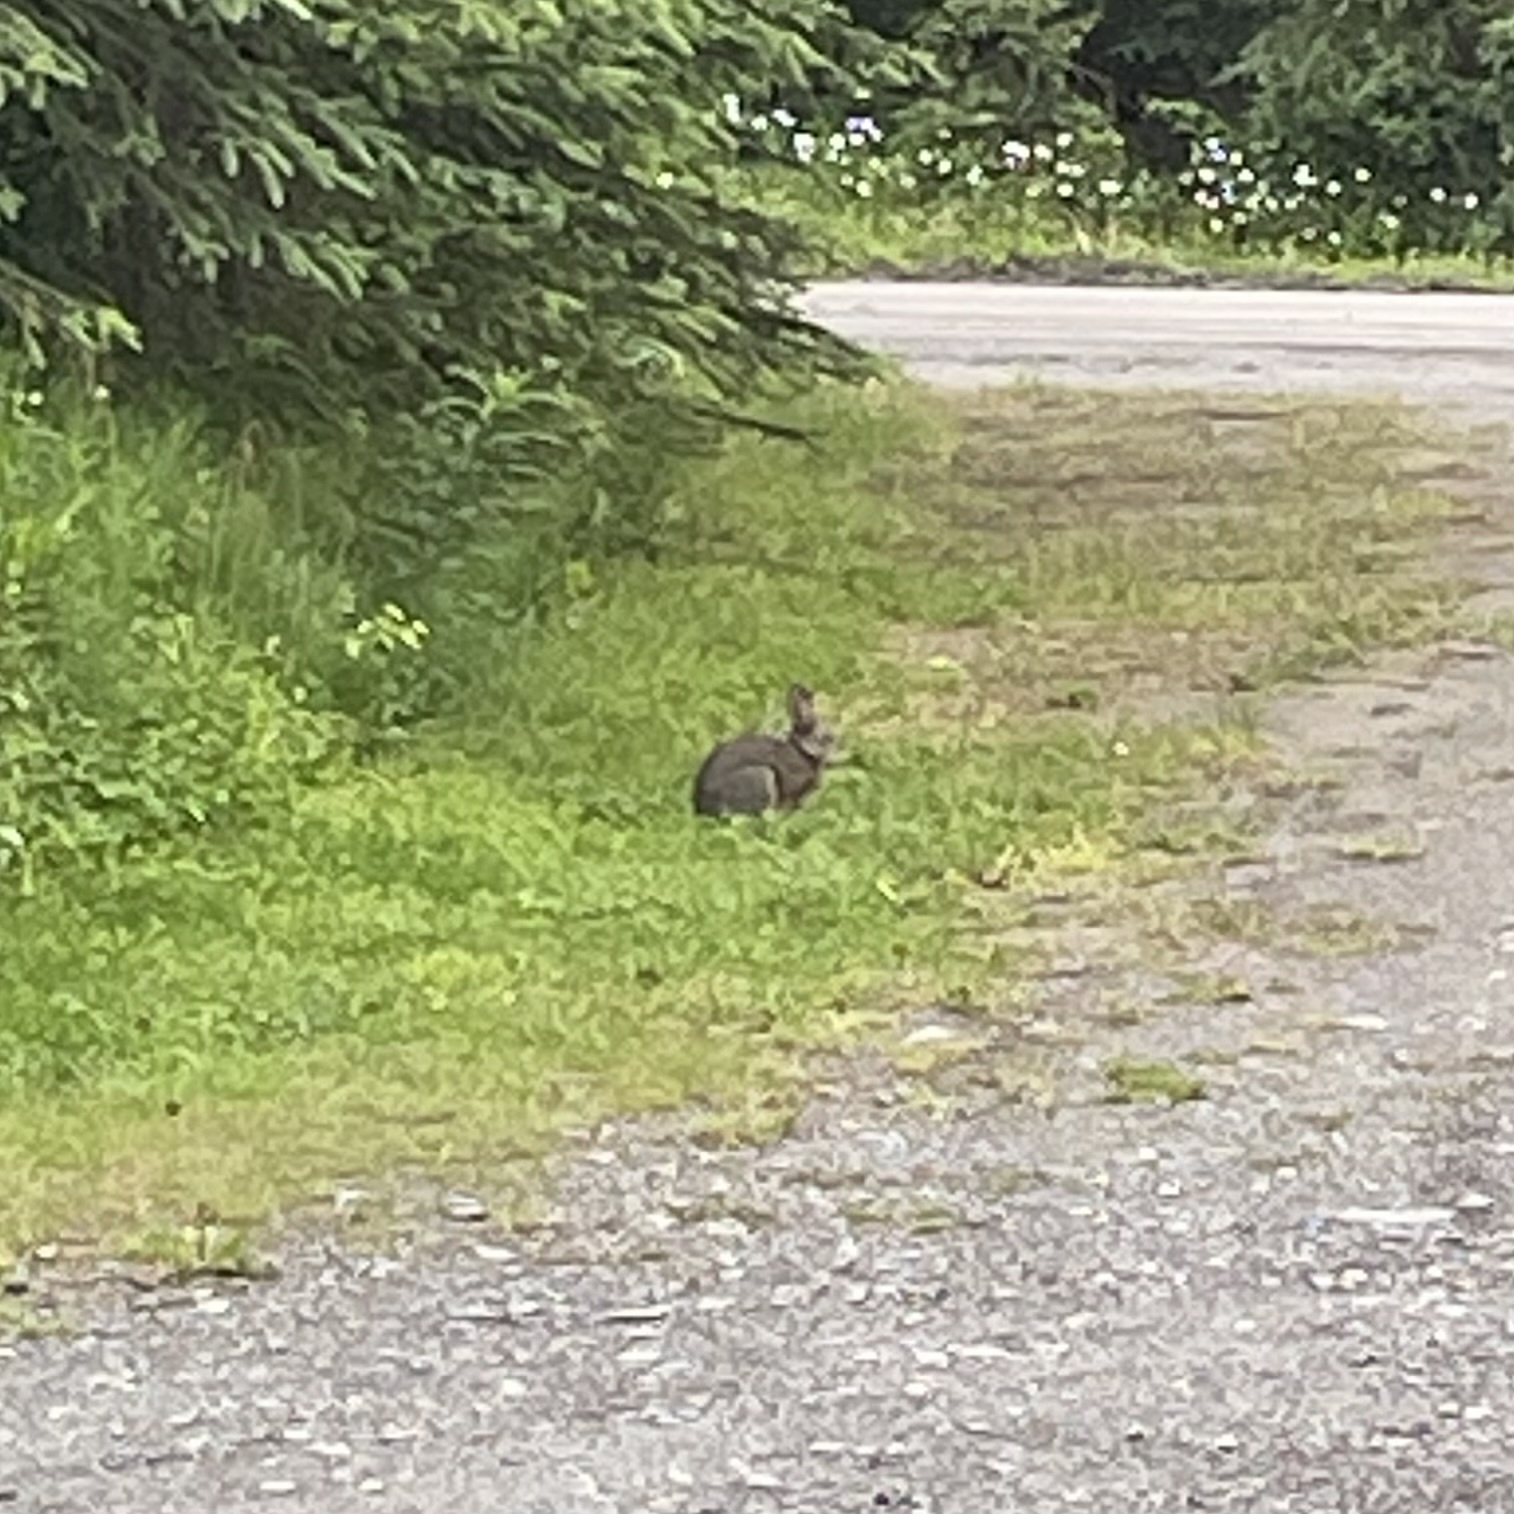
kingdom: Animalia
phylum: Chordata
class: Mammalia
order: Lagomorpha
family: Leporidae
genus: Lepus
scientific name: Lepus americanus
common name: Snowshoe hare
